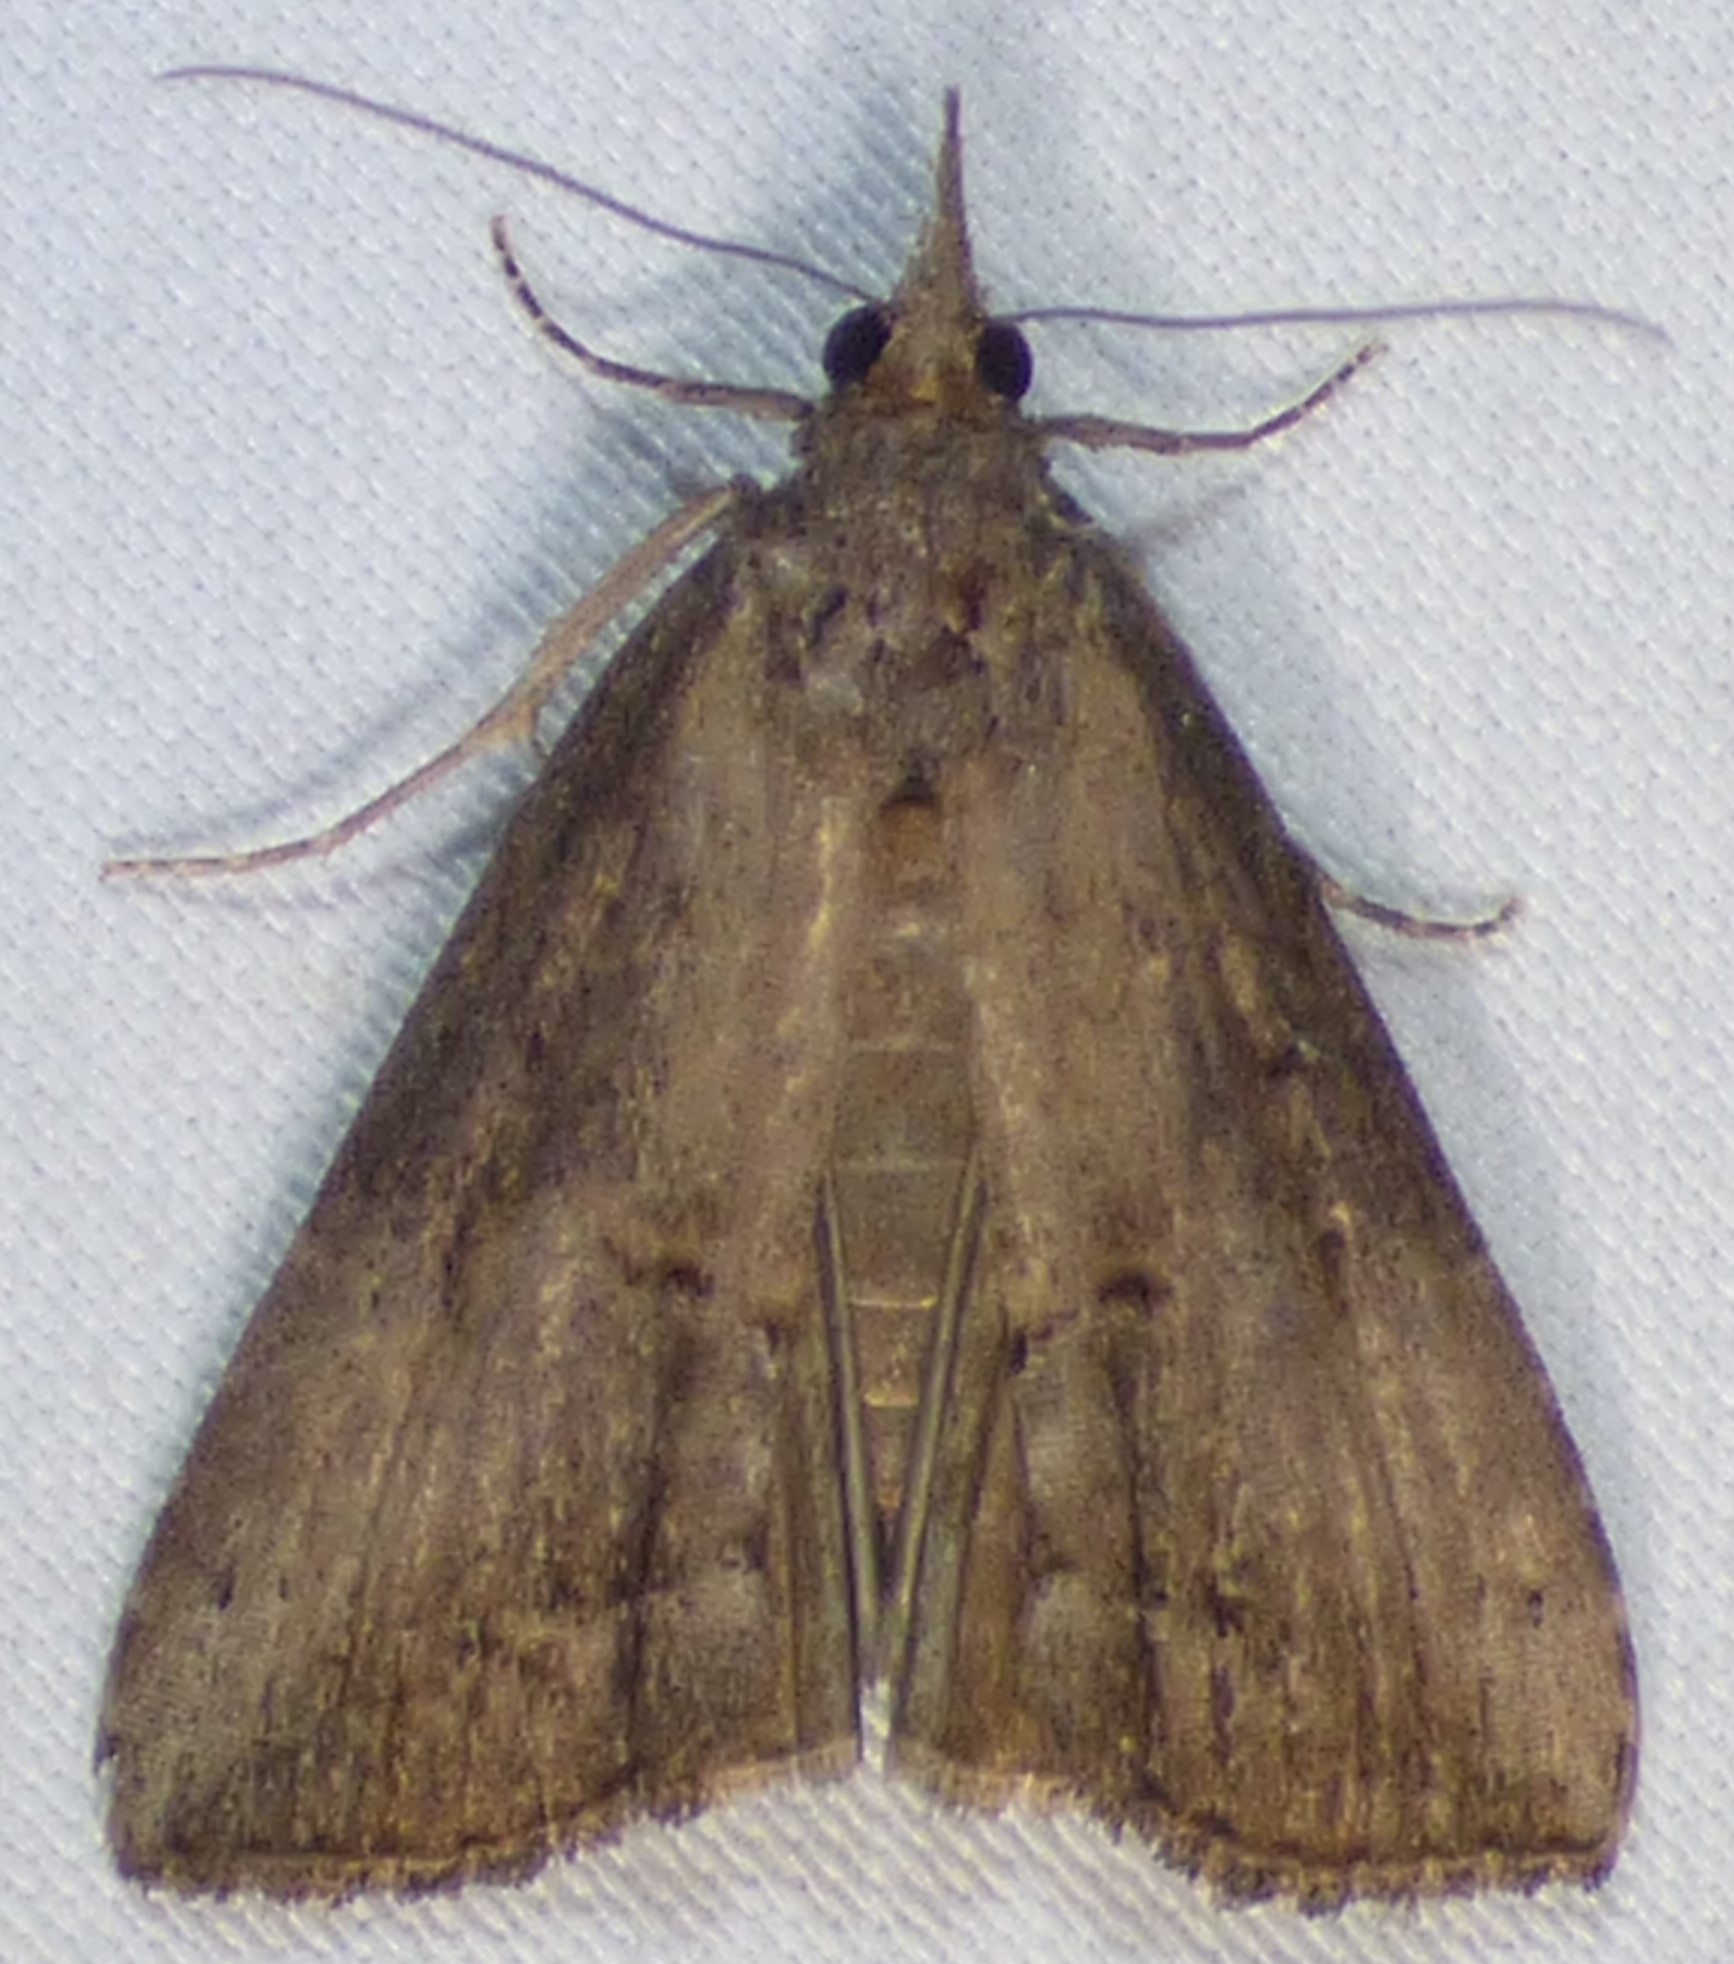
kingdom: Animalia
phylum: Arthropoda
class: Insecta
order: Lepidoptera
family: Erebidae
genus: Hypena
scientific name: Hypena scabra
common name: Green cloverworm
